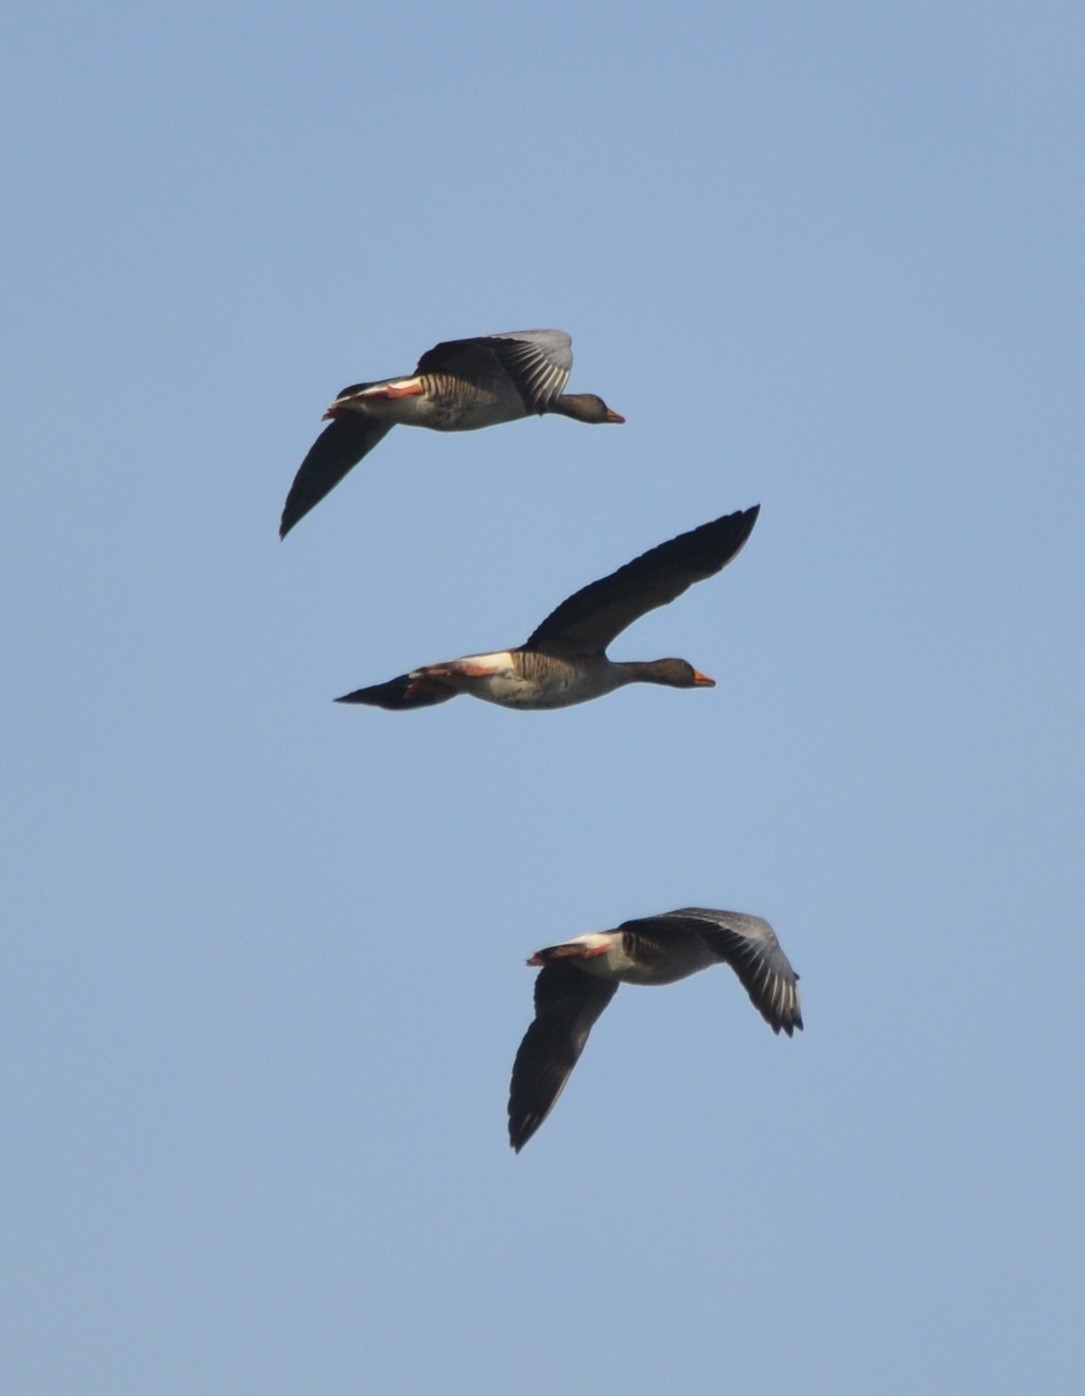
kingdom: Animalia
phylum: Chordata
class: Aves
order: Anseriformes
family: Anatidae
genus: Anser
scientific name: Anser anser
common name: Greylag goose
